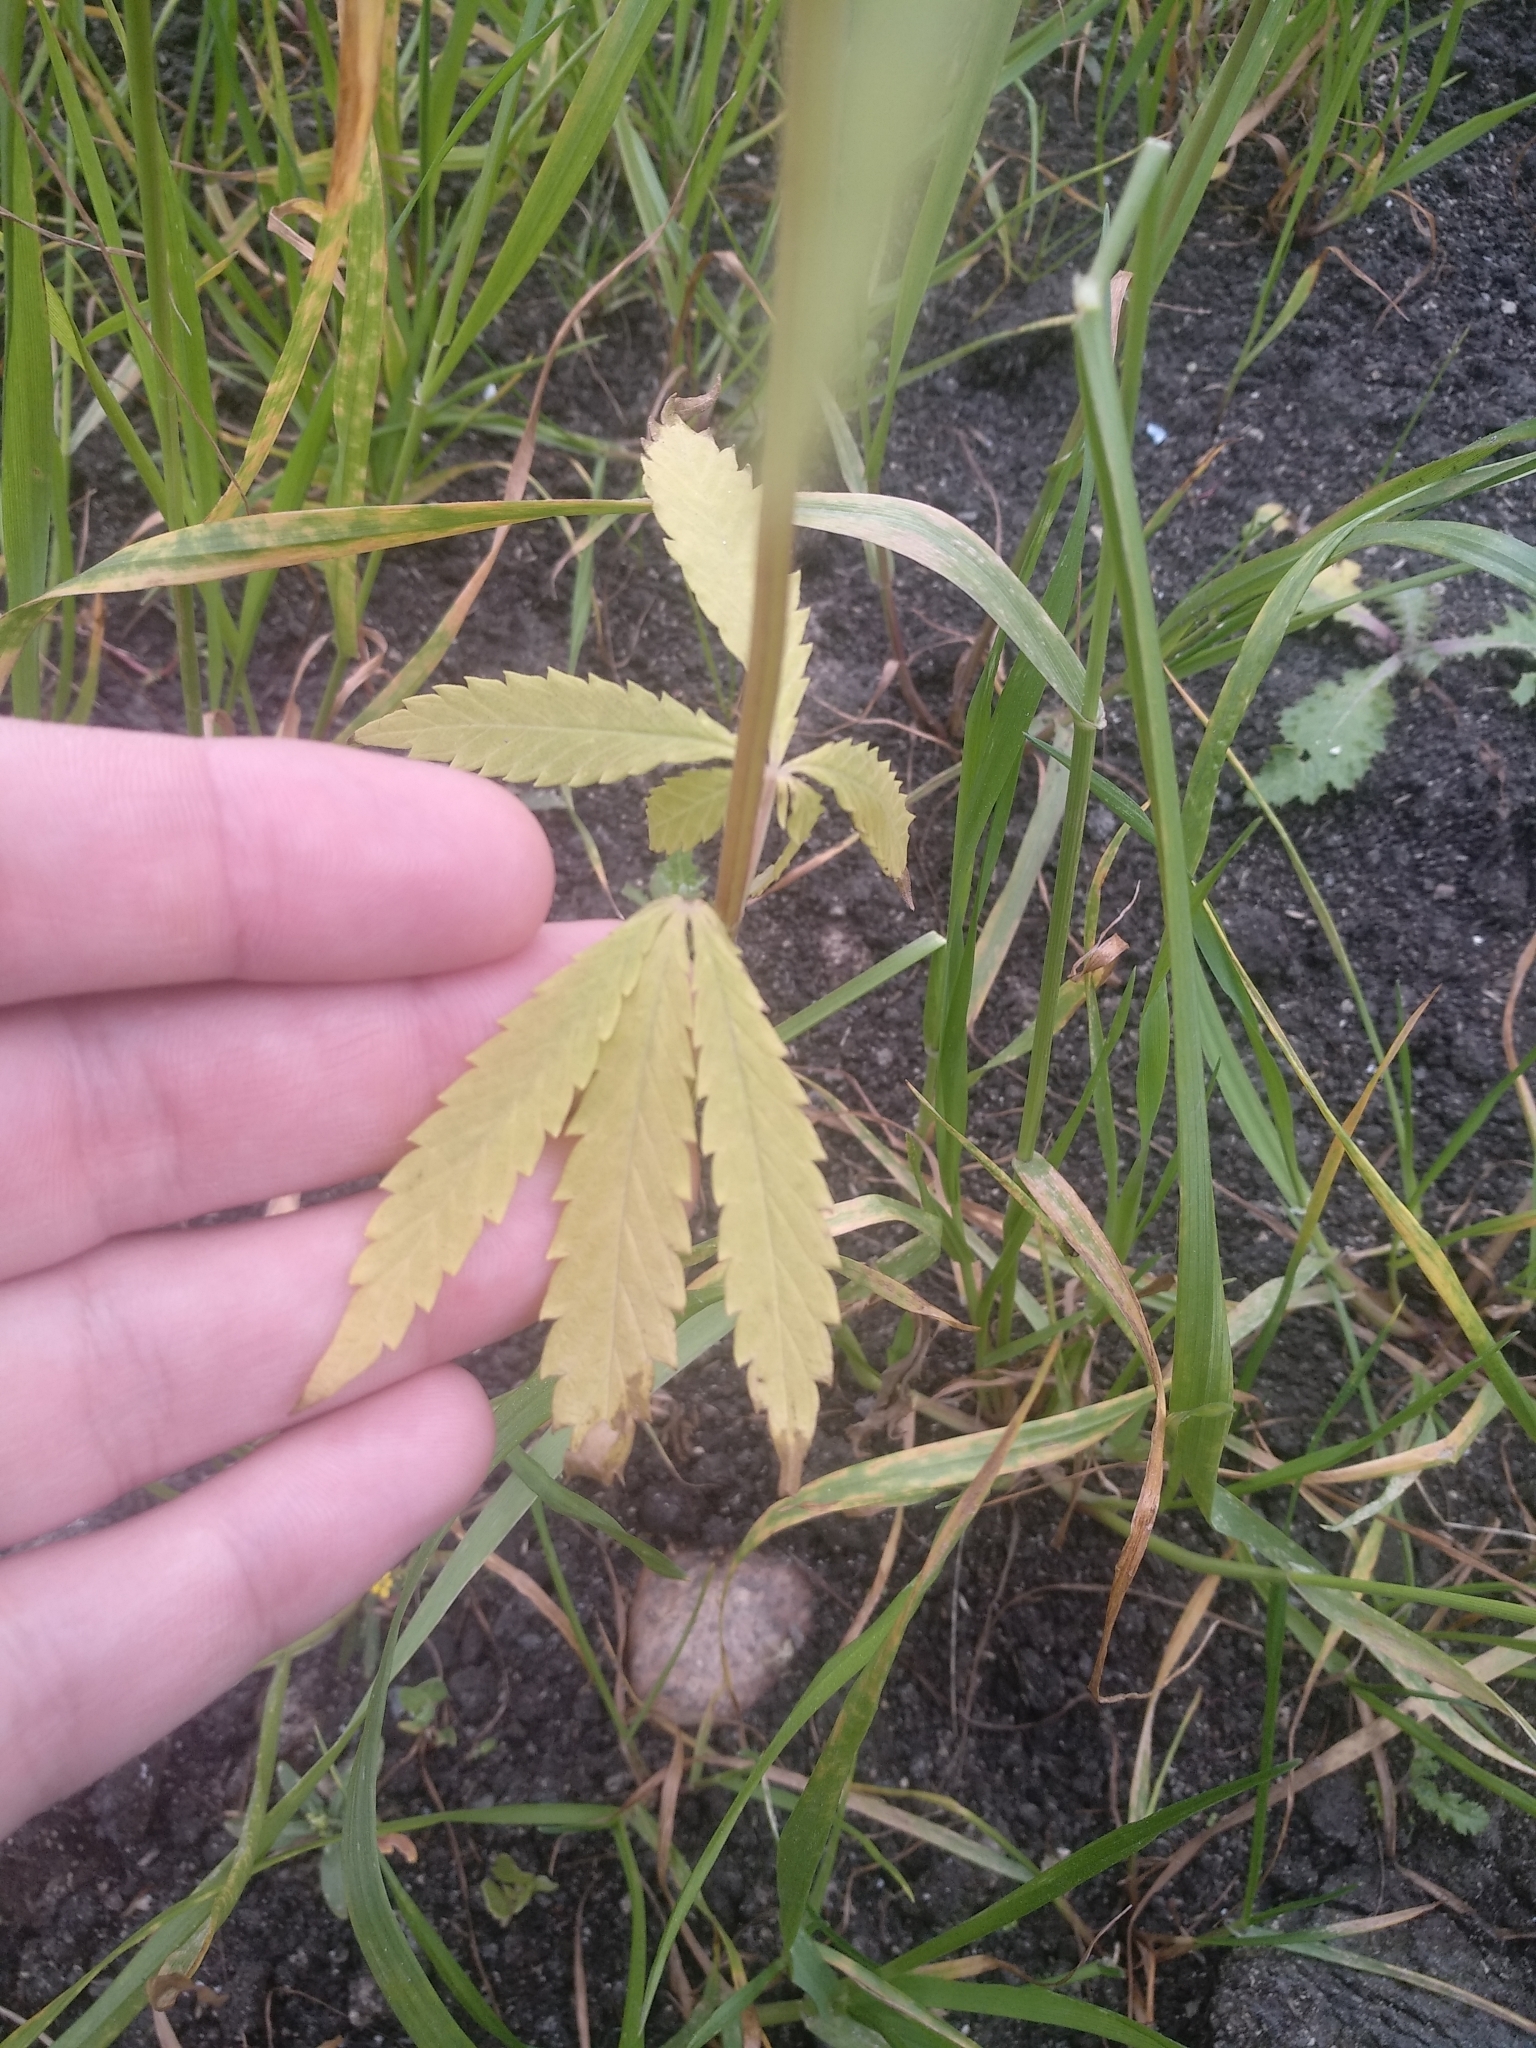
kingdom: Plantae
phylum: Tracheophyta
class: Magnoliopsida
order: Rosales
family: Cannabaceae
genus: Cannabis
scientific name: Cannabis sativa
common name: Hemp
